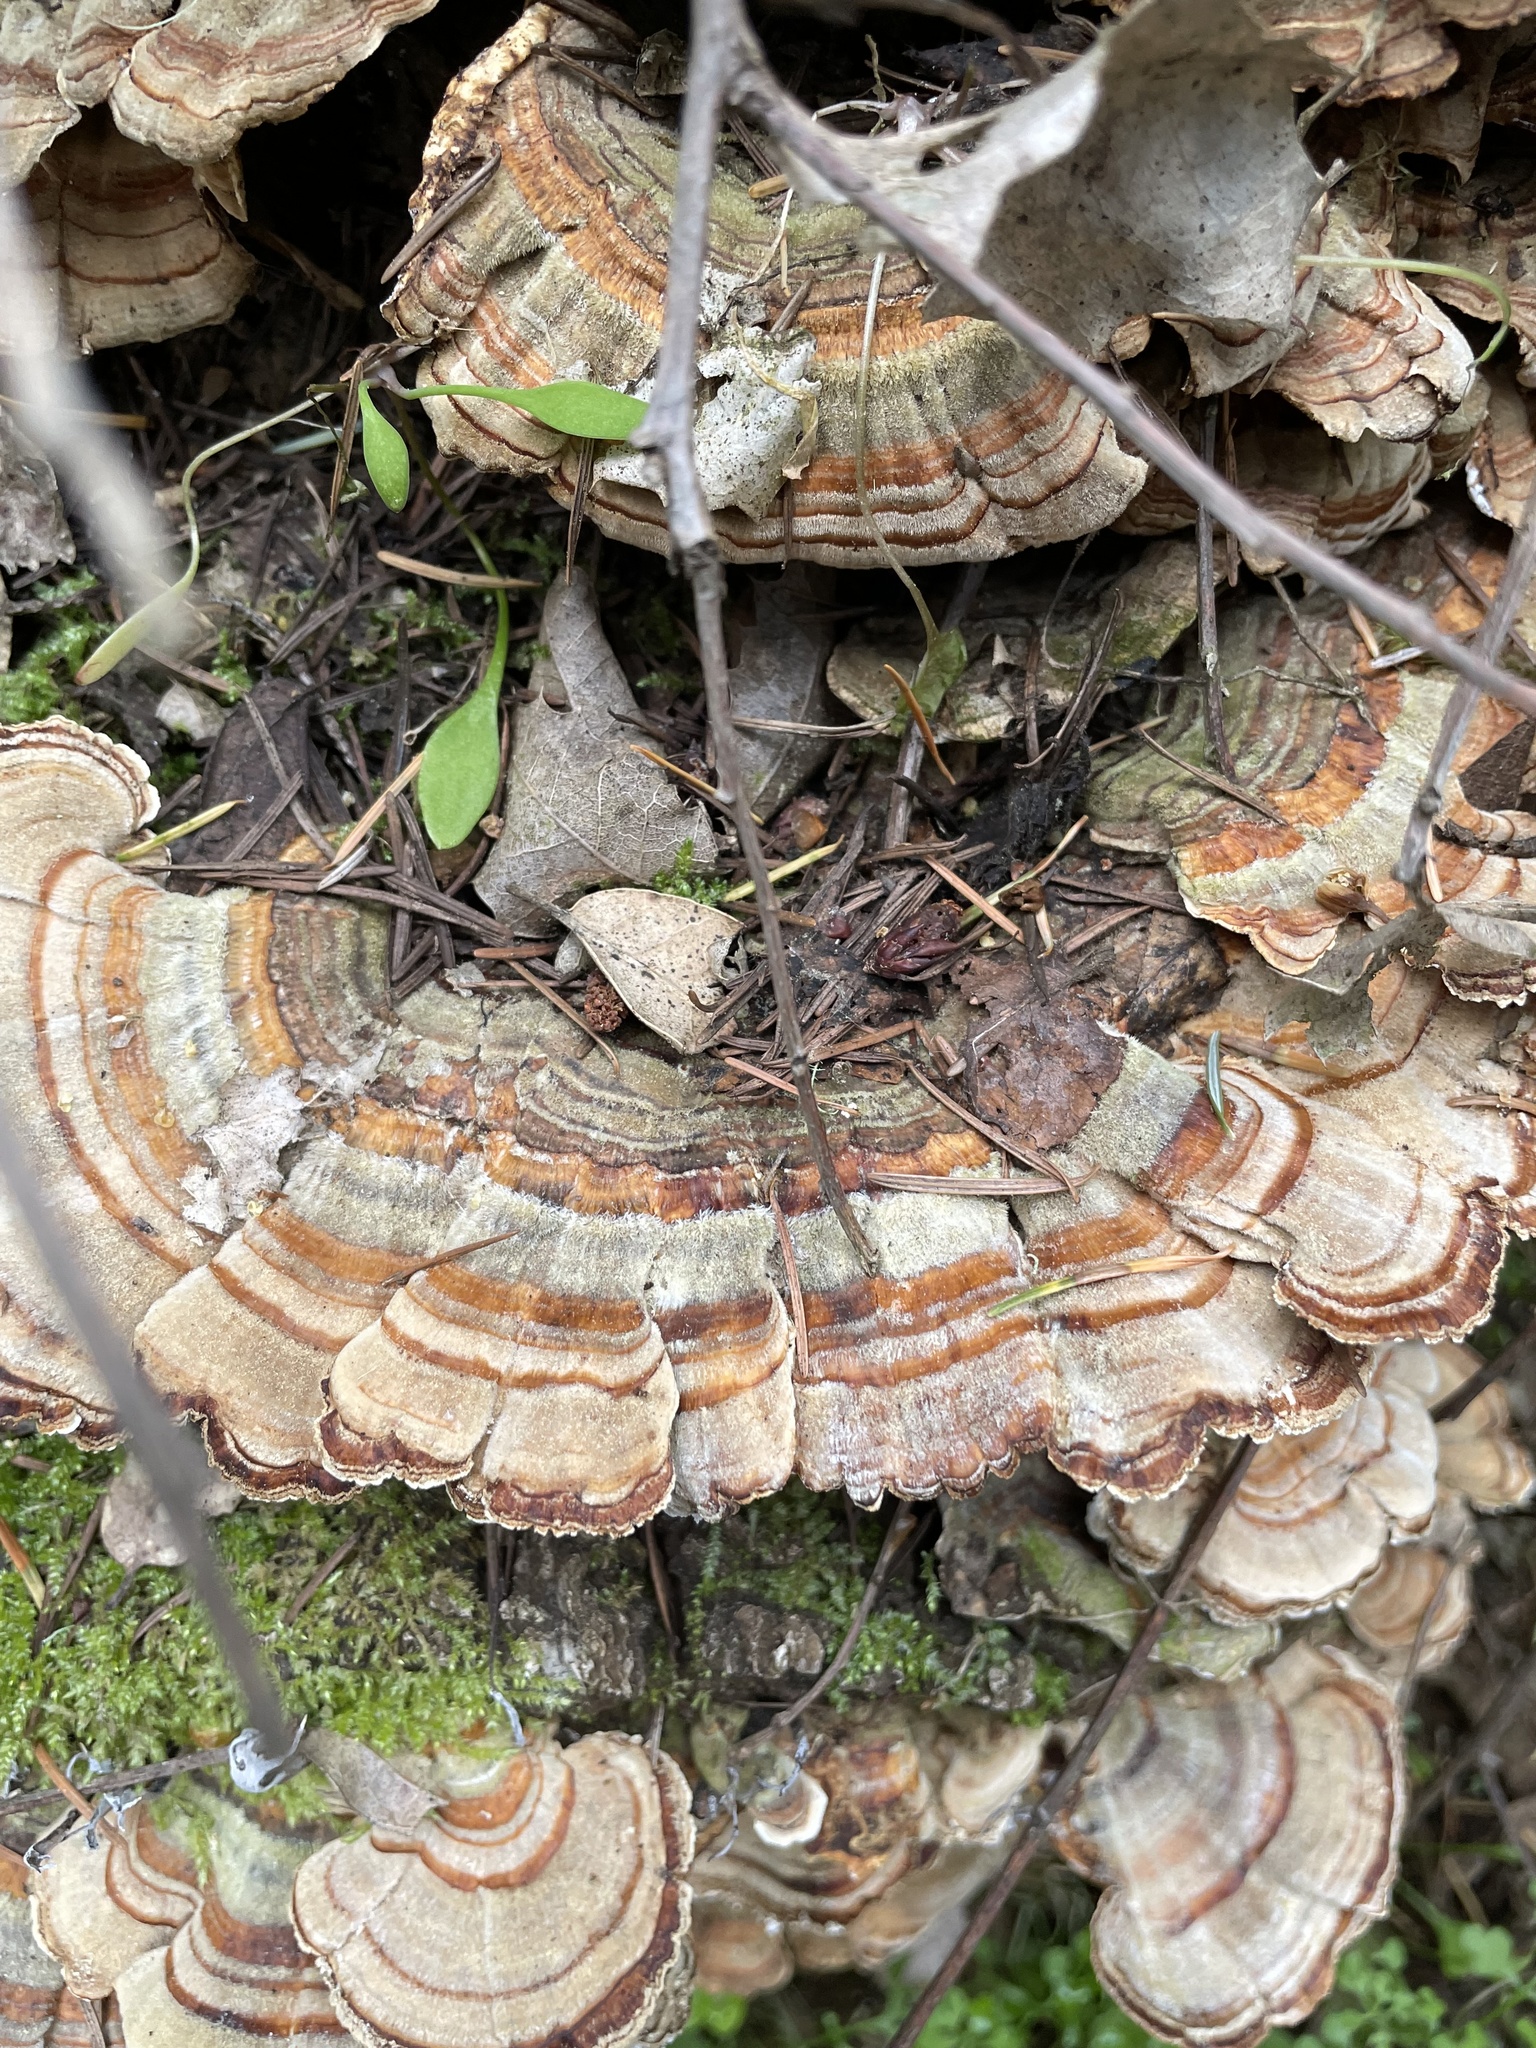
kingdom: Fungi
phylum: Basidiomycota
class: Agaricomycetes
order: Polyporales
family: Polyporaceae
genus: Trametes
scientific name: Trametes versicolor
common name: Turkeytail
